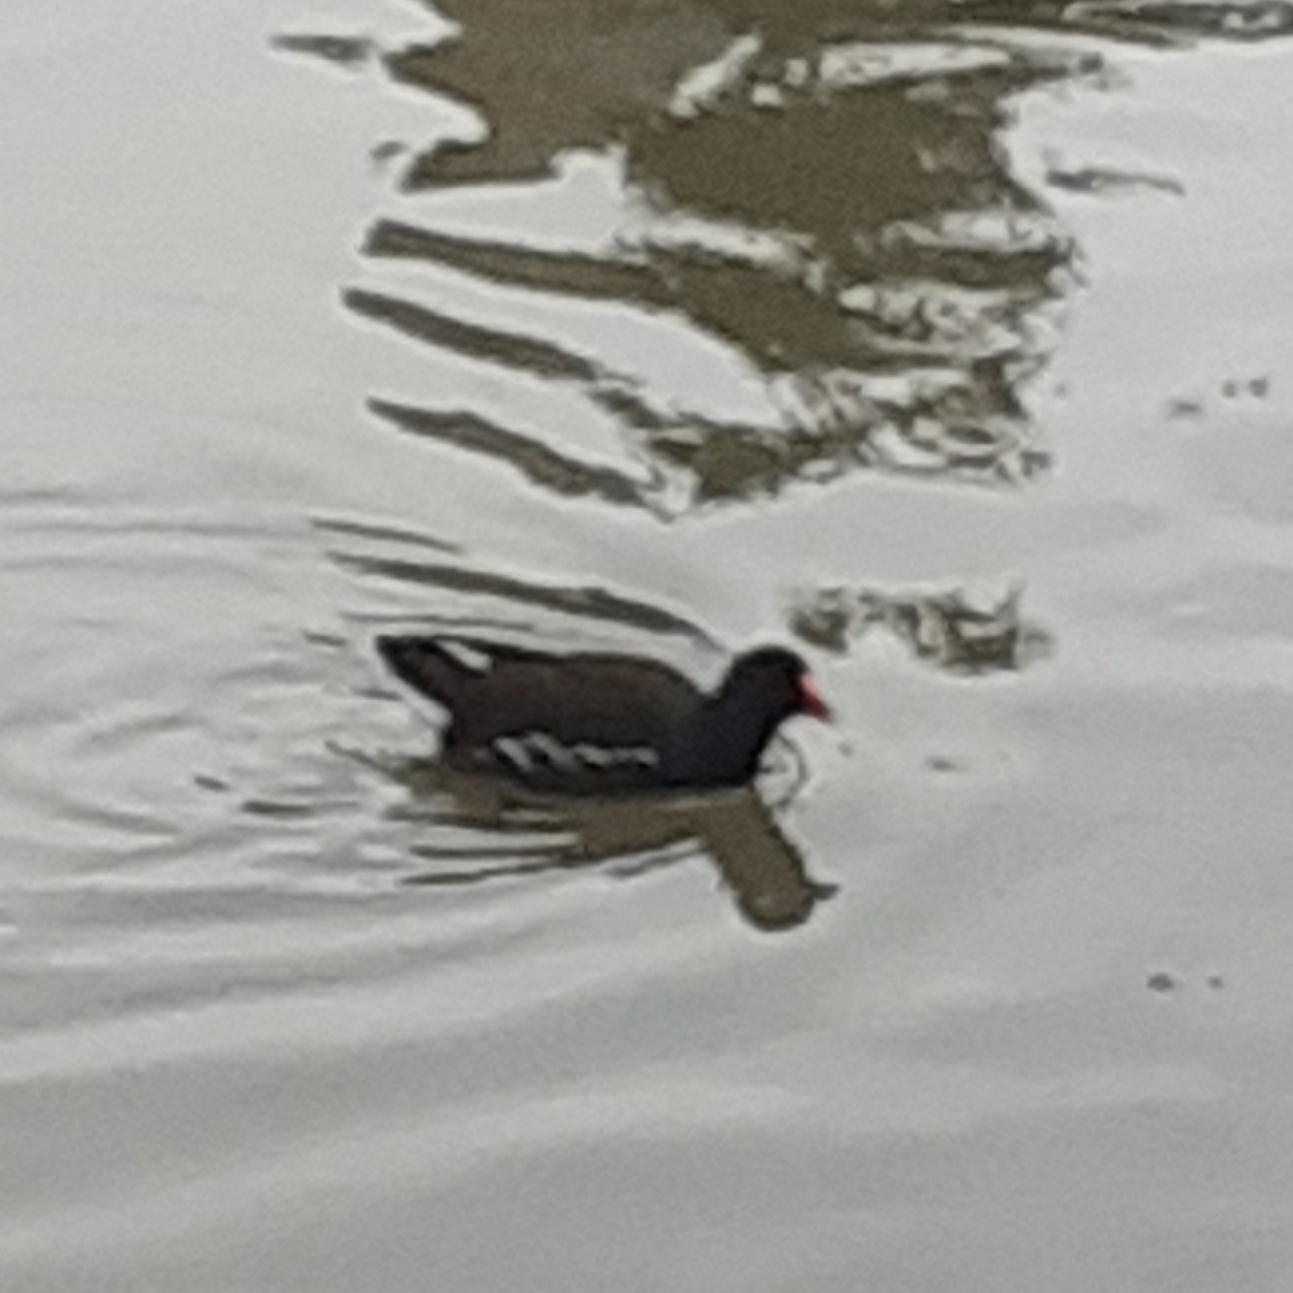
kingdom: Animalia
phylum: Chordata
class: Aves
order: Gruiformes
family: Rallidae
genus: Gallinula
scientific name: Gallinula chloropus
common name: Common moorhen
